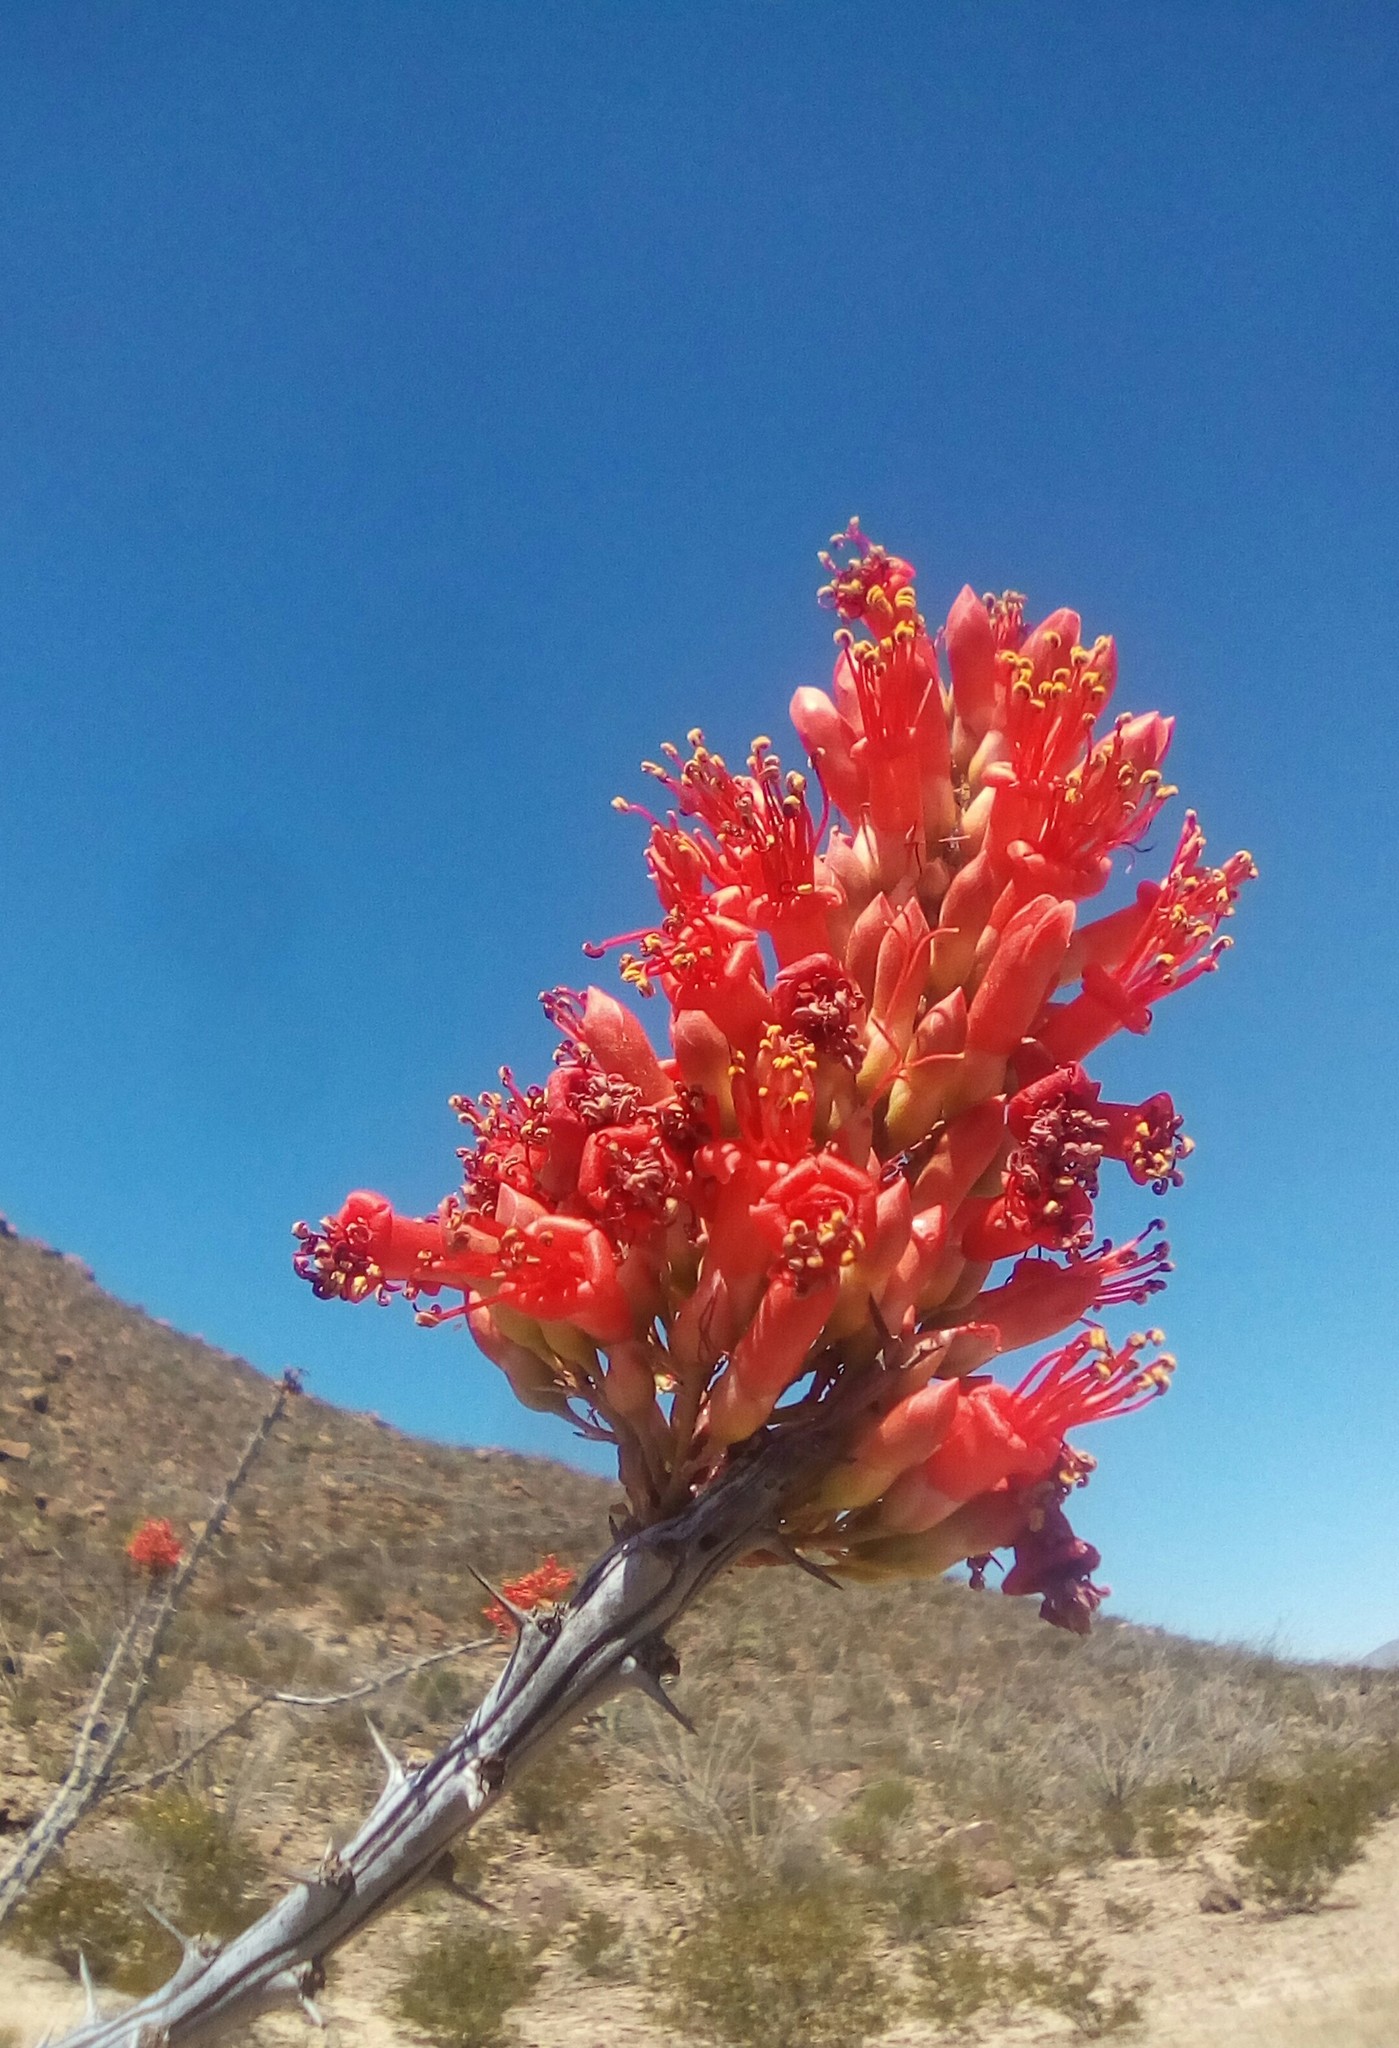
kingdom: Plantae
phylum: Tracheophyta
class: Magnoliopsida
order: Ericales
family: Fouquieriaceae
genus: Fouquieria
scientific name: Fouquieria splendens
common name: Vine-cactus
